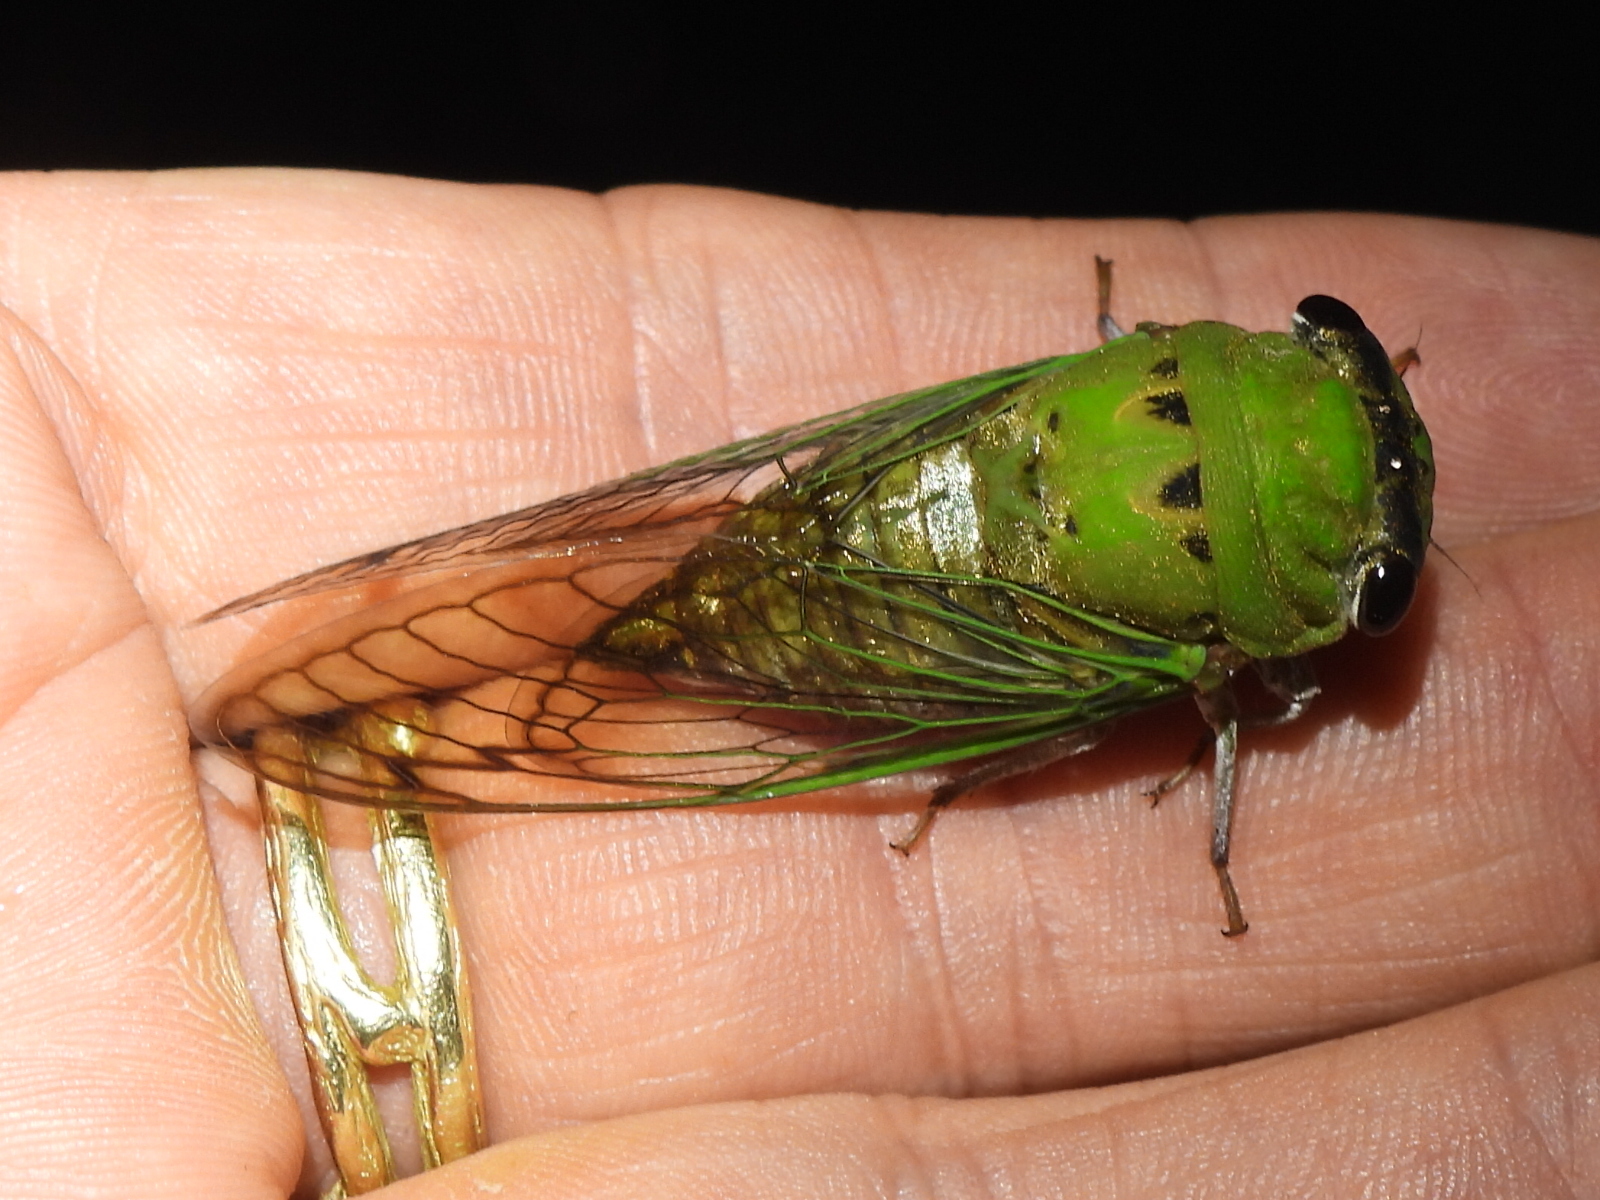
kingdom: Animalia
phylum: Arthropoda
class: Insecta
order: Hemiptera
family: Cicadidae
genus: Neotibicen
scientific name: Neotibicen superbus
